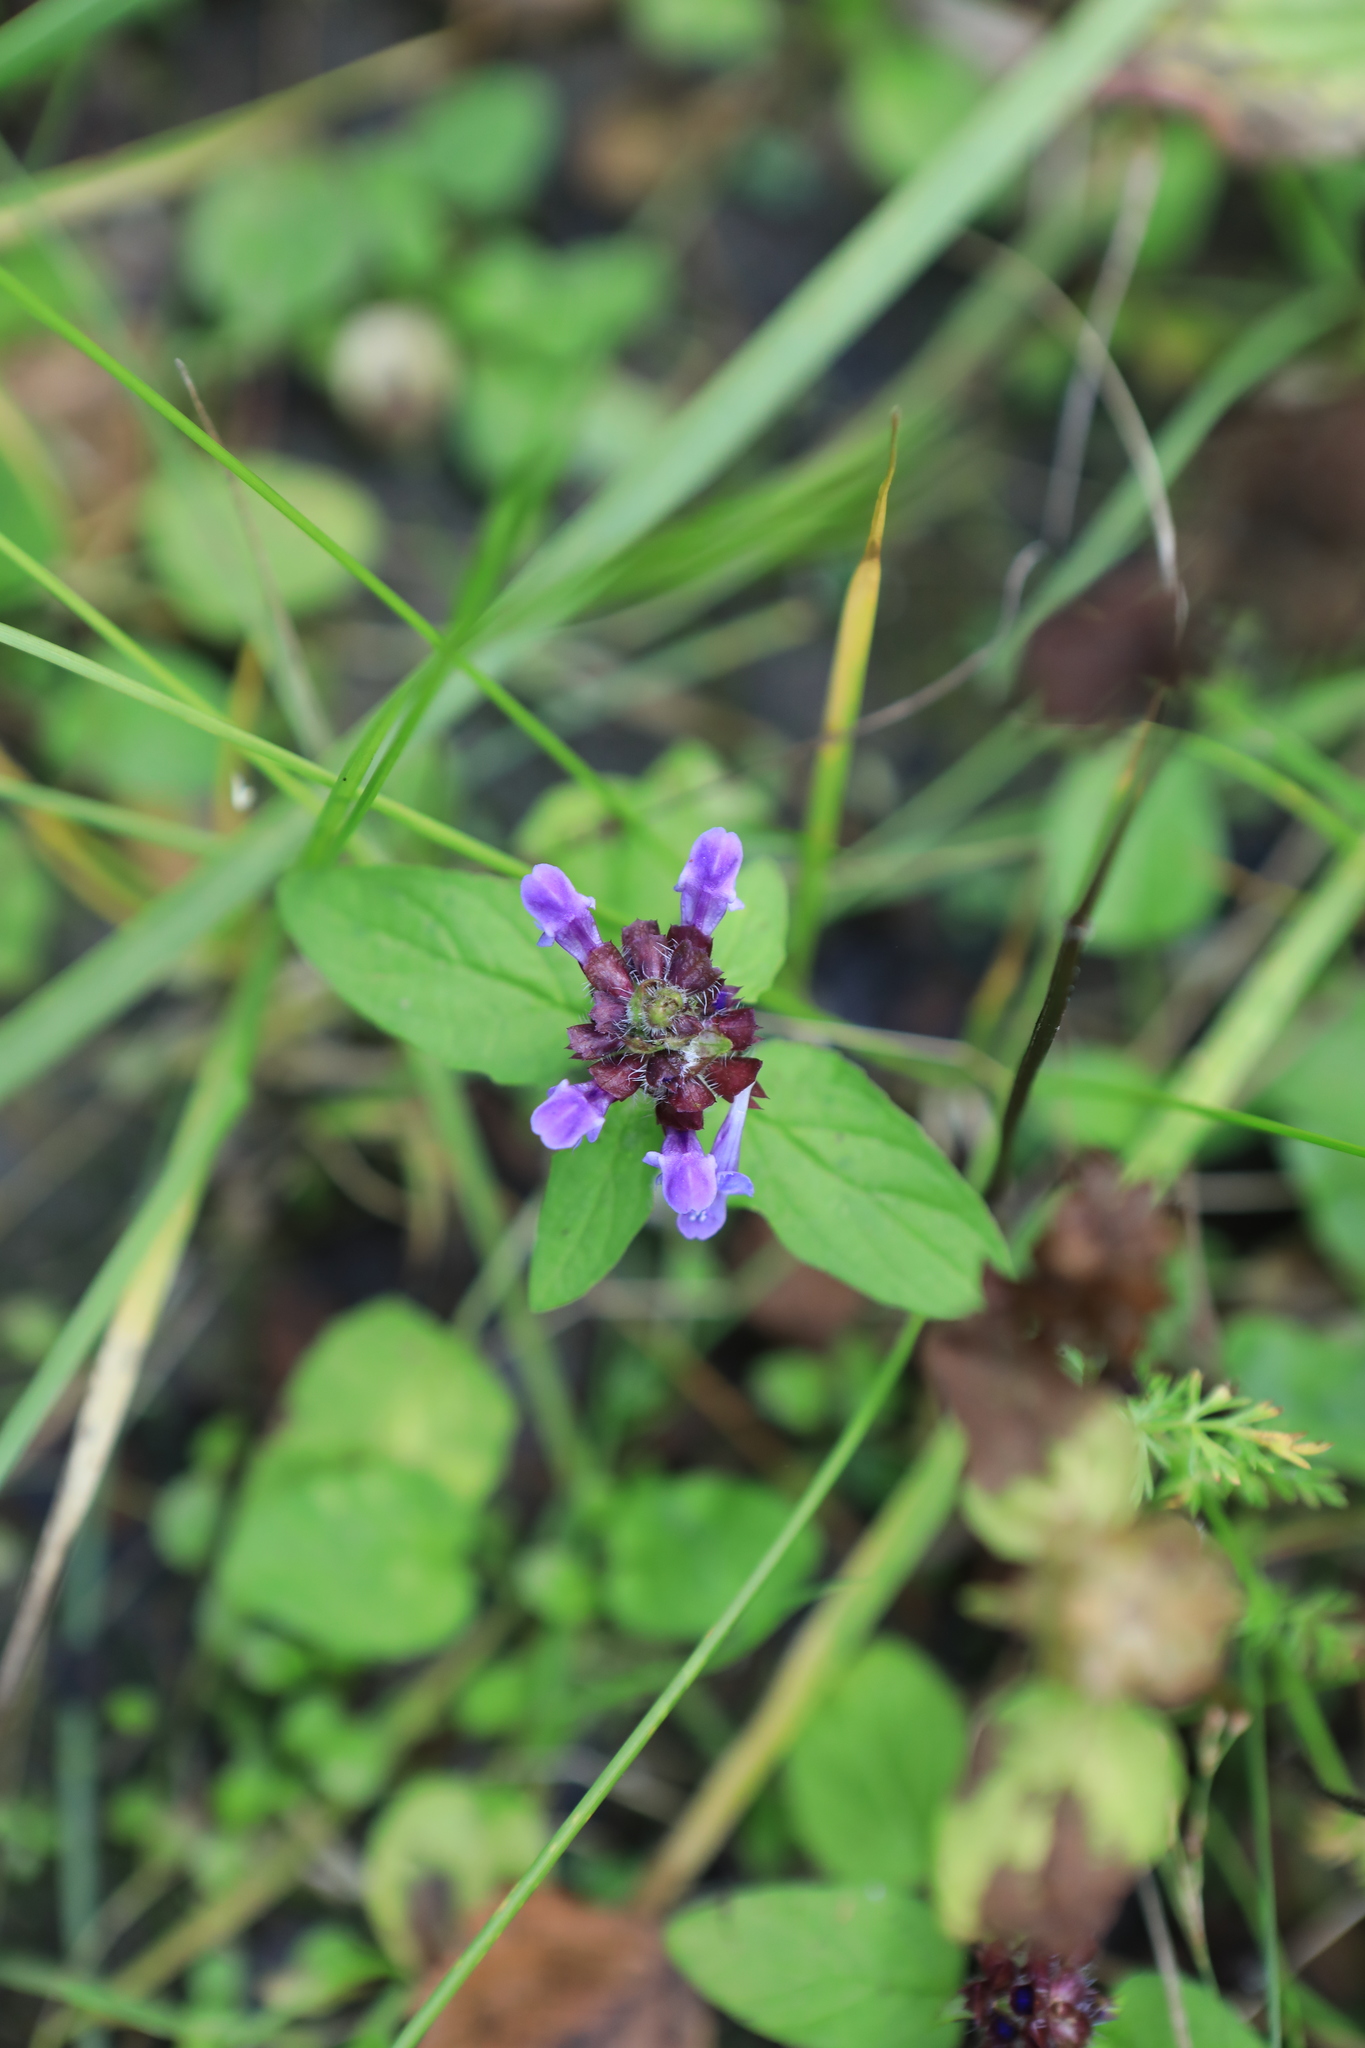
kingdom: Plantae
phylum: Tracheophyta
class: Magnoliopsida
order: Lamiales
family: Lamiaceae
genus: Prunella
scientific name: Prunella vulgaris
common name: Heal-all
